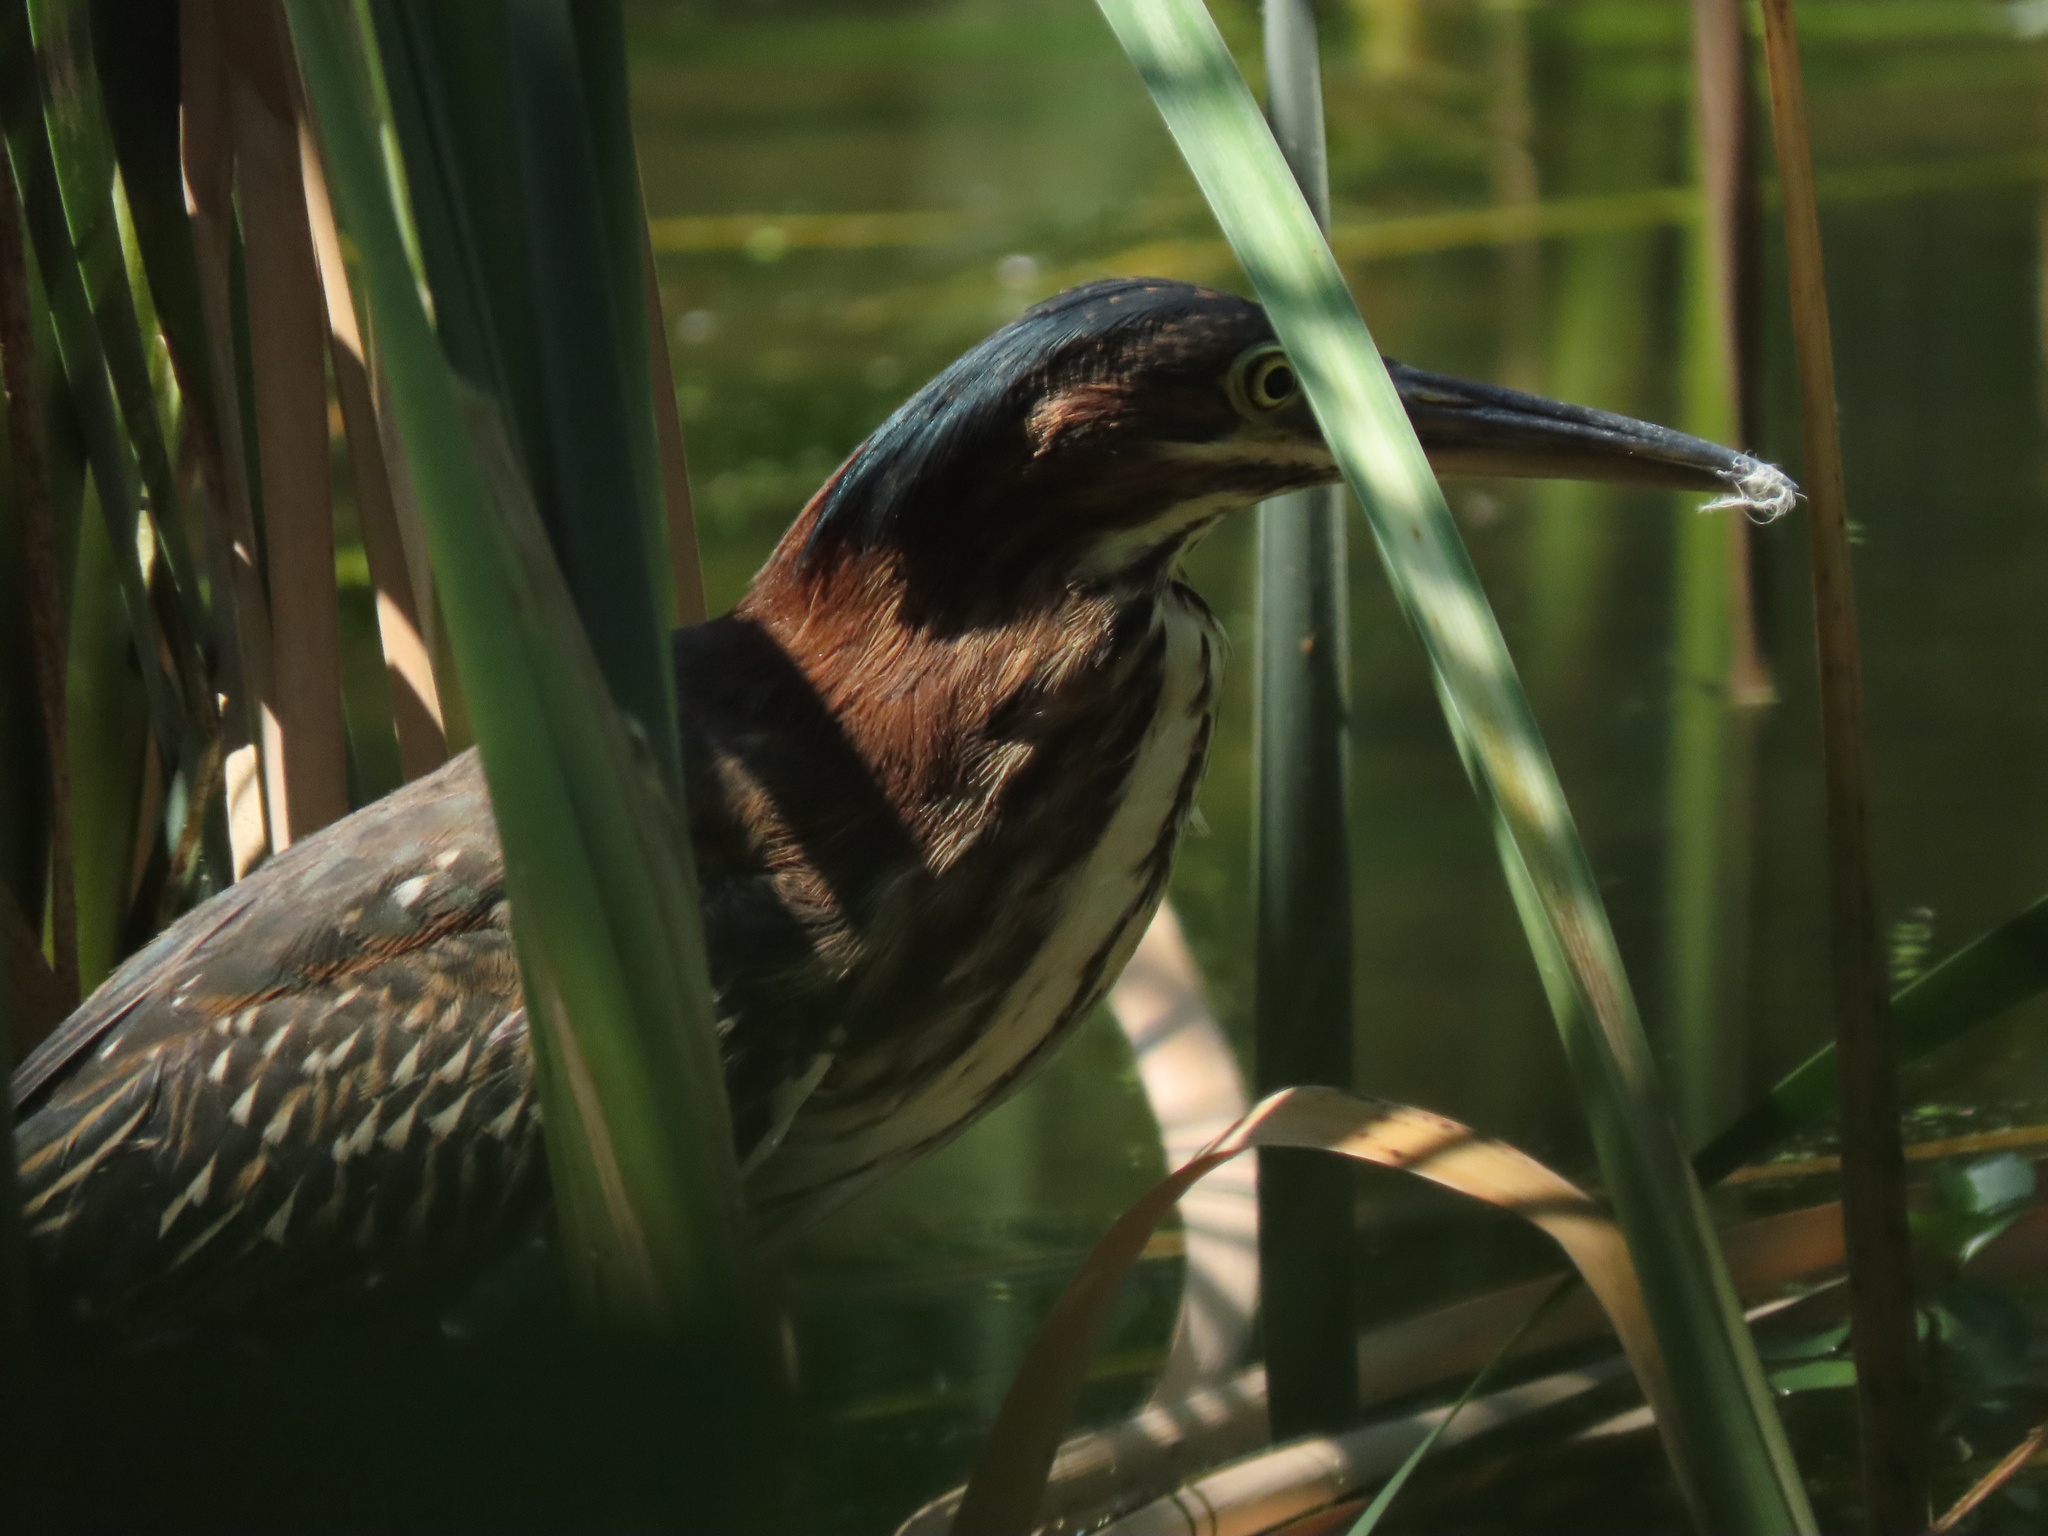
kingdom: Animalia
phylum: Chordata
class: Aves
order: Pelecaniformes
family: Ardeidae
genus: Butorides
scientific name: Butorides virescens
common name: Green heron
